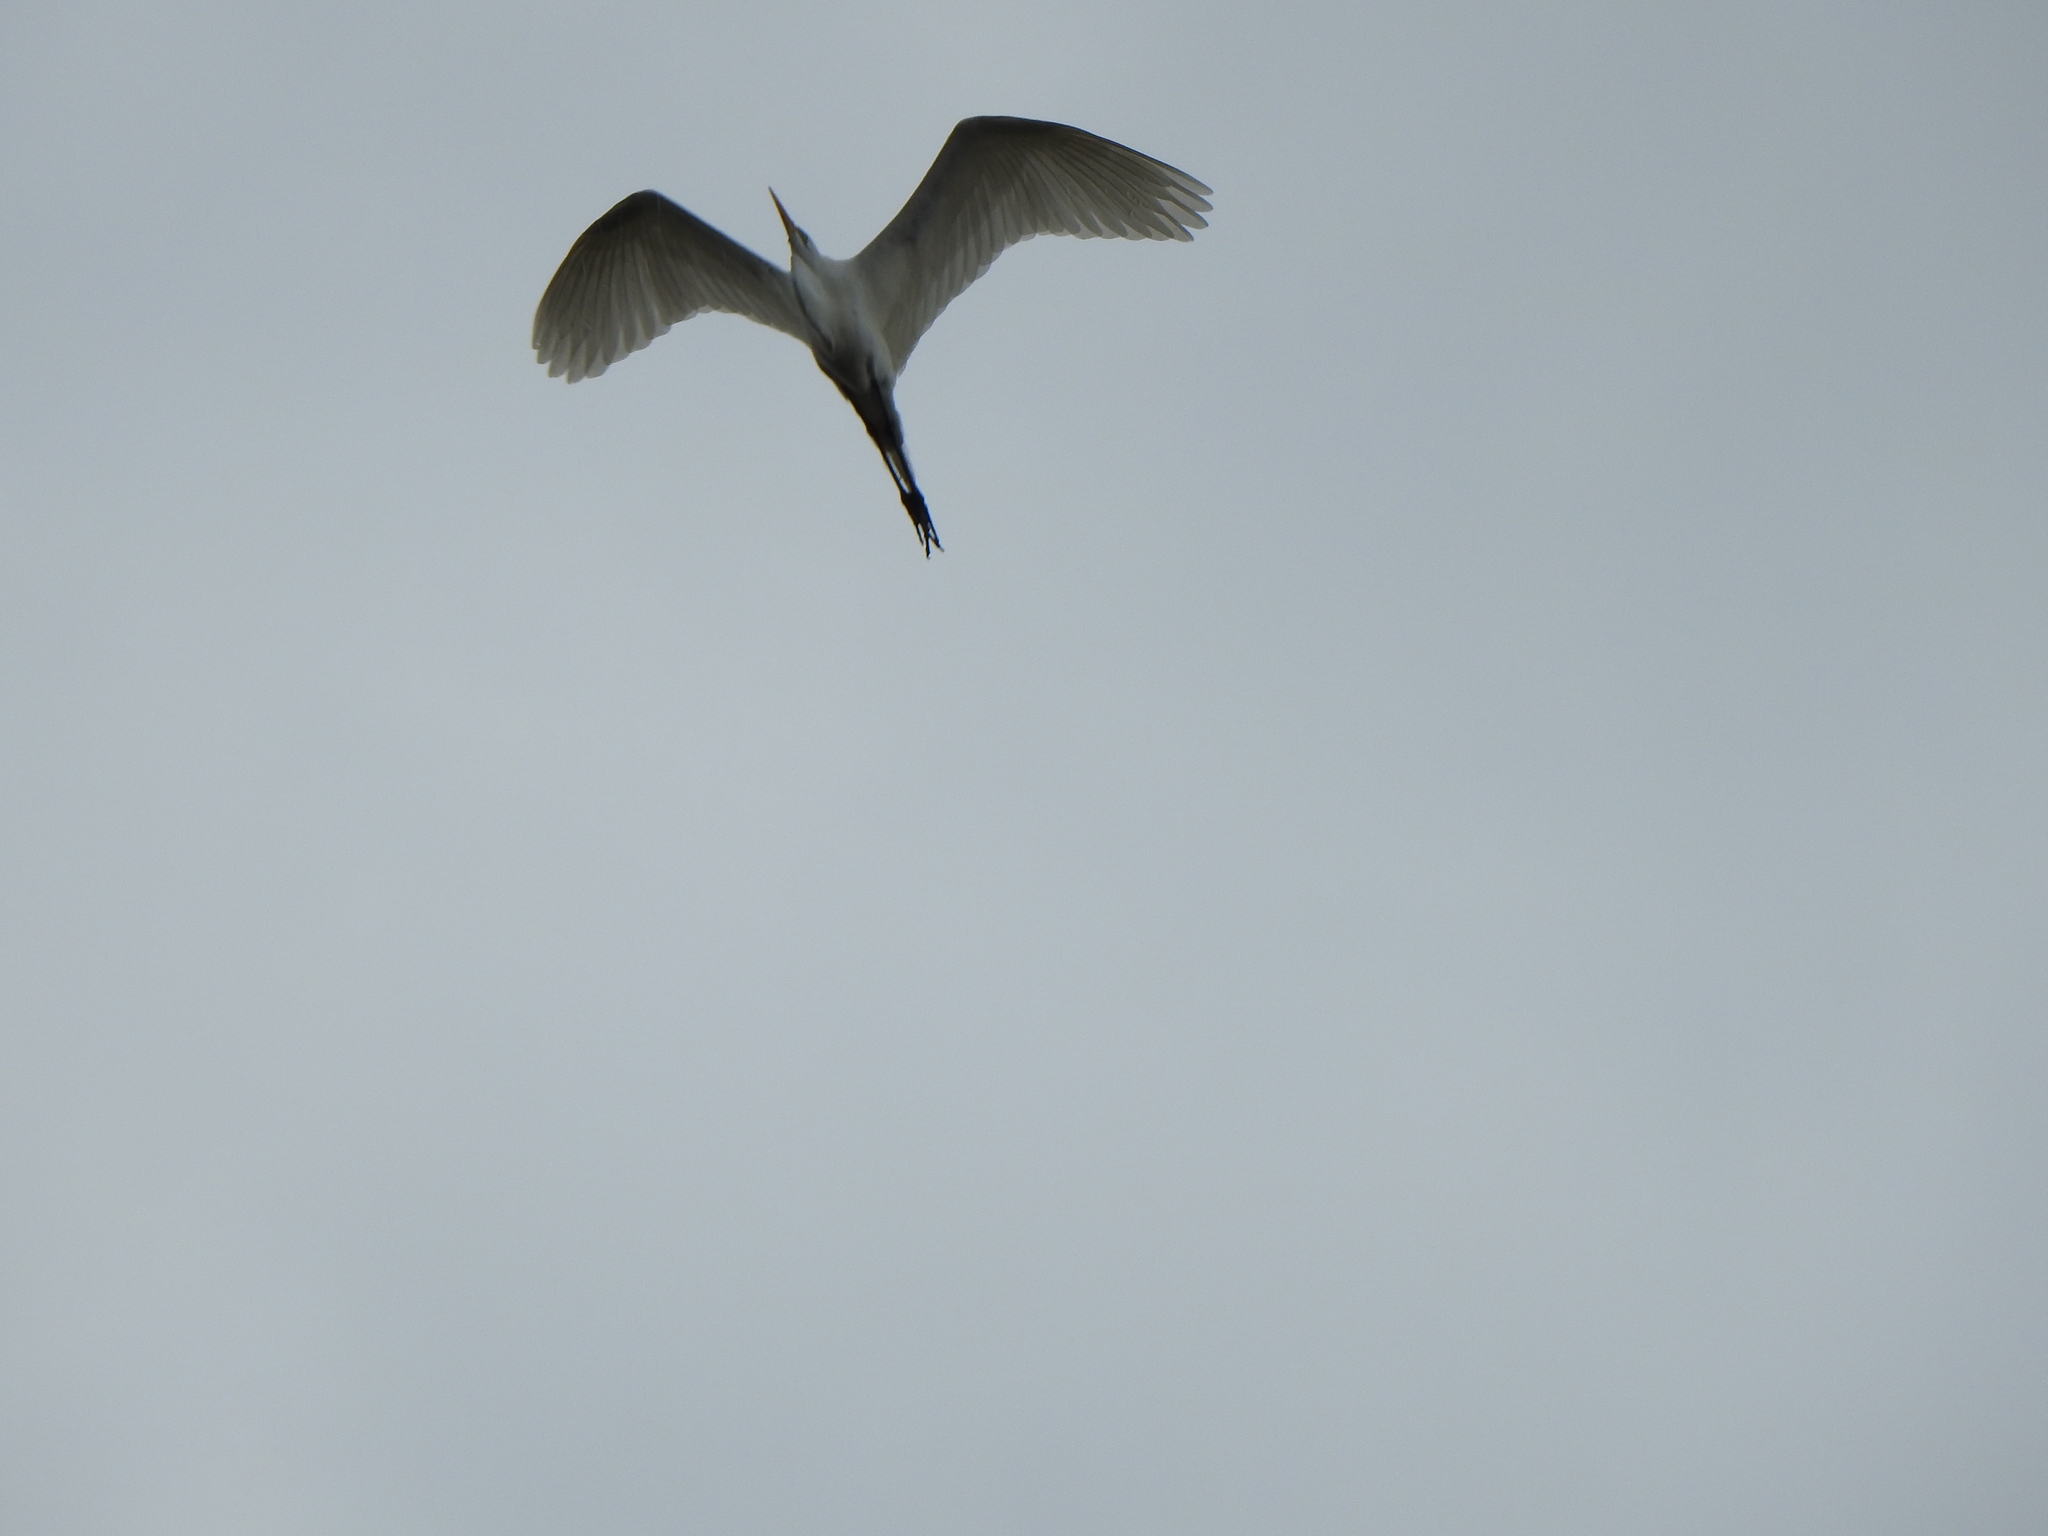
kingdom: Animalia
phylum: Chordata
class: Aves
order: Pelecaniformes
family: Ardeidae
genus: Ardea
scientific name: Ardea alba
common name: Great egret
